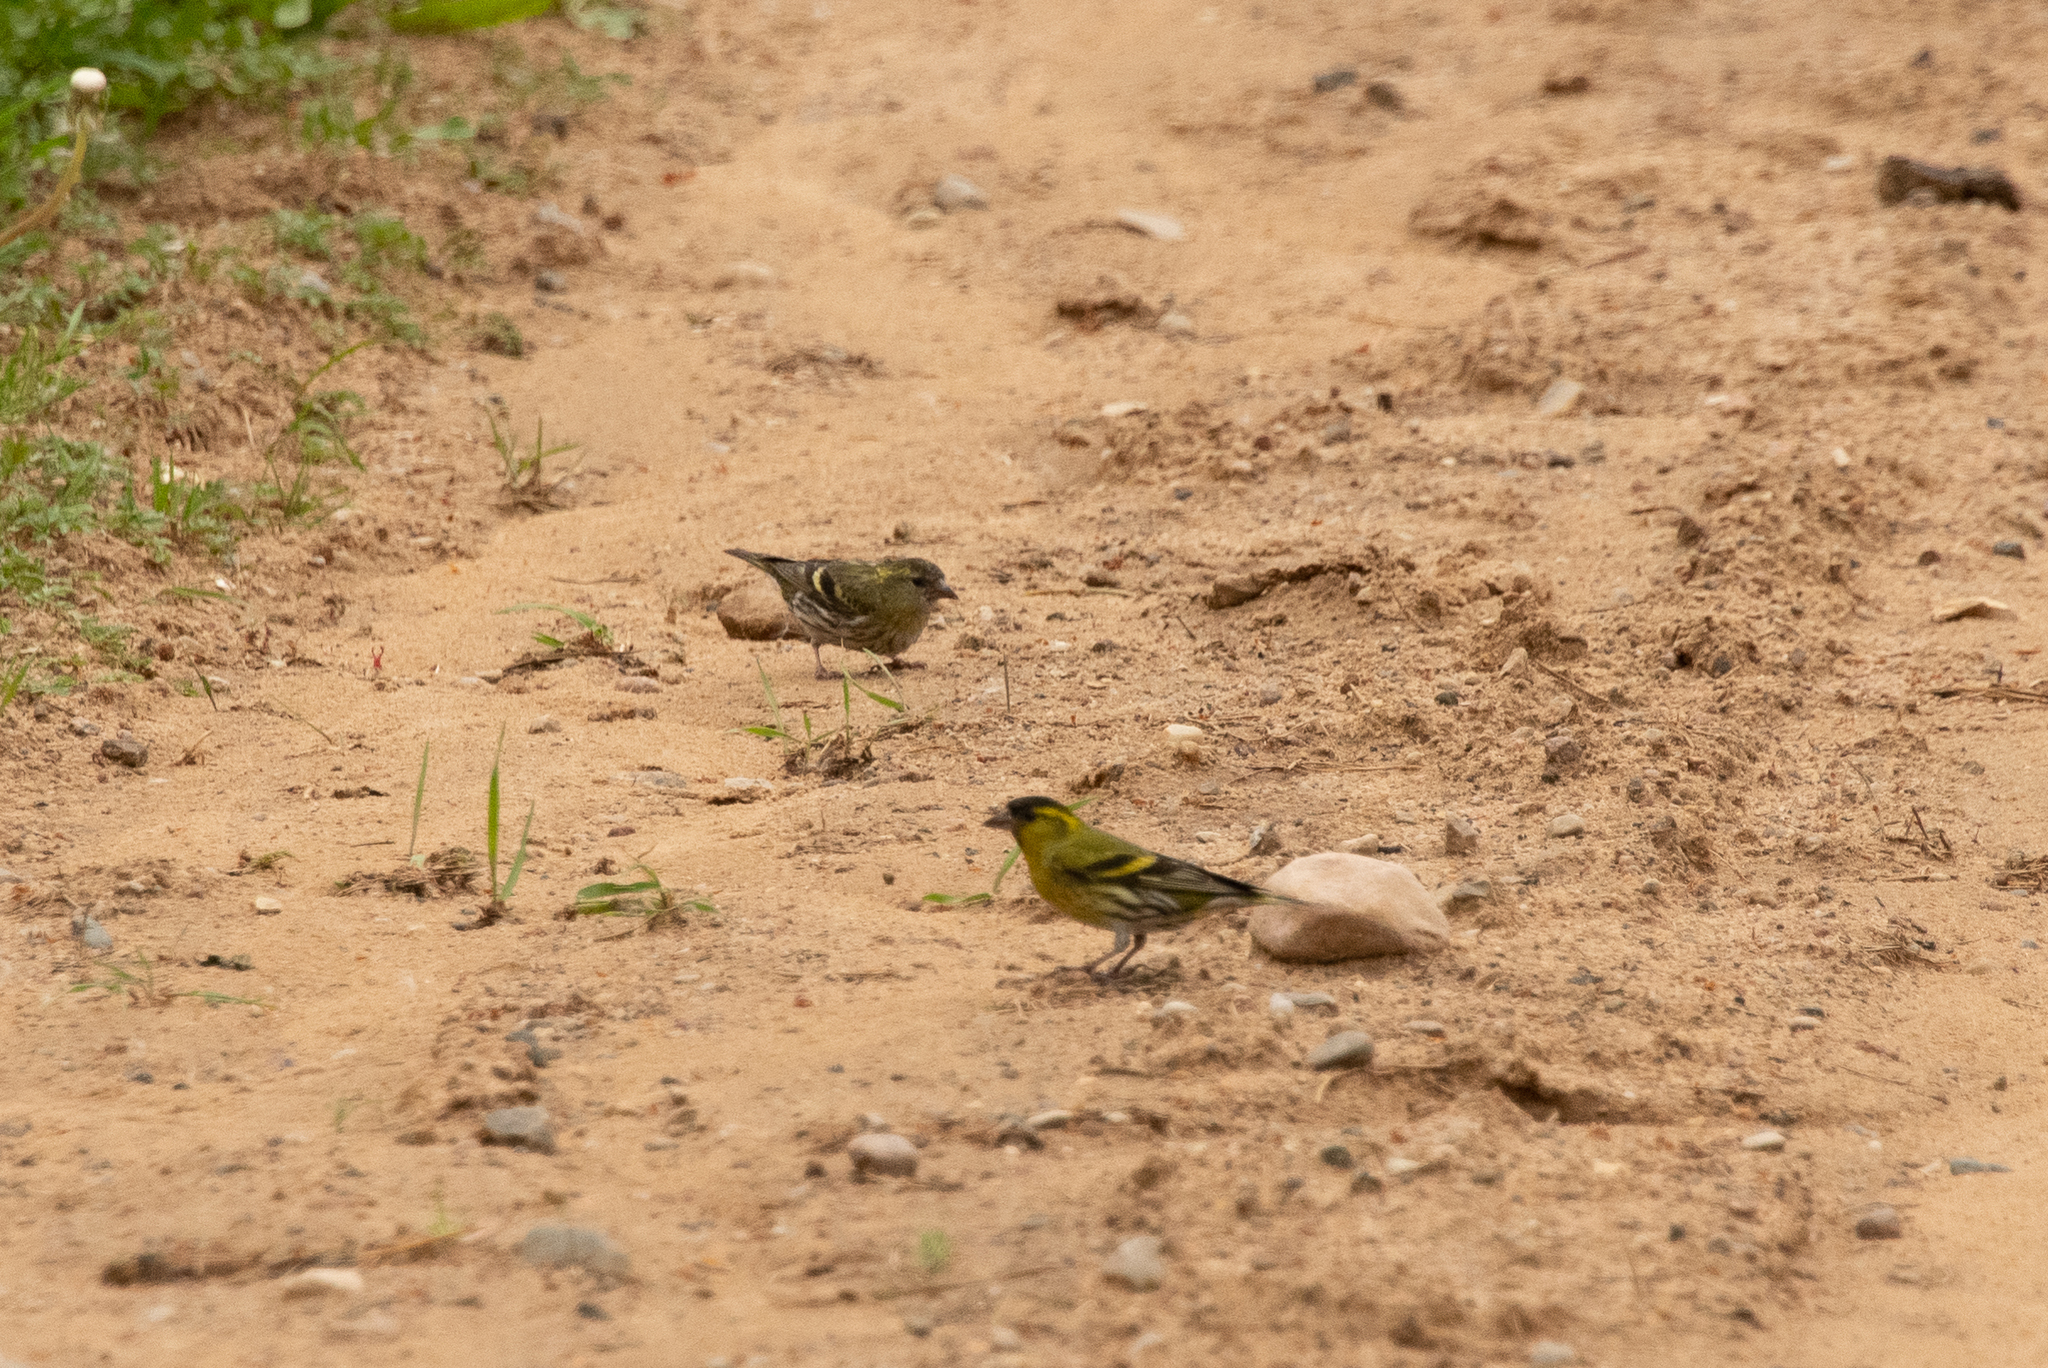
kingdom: Animalia
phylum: Chordata
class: Aves
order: Passeriformes
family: Fringillidae
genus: Spinus
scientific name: Spinus spinus
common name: Eurasian siskin
